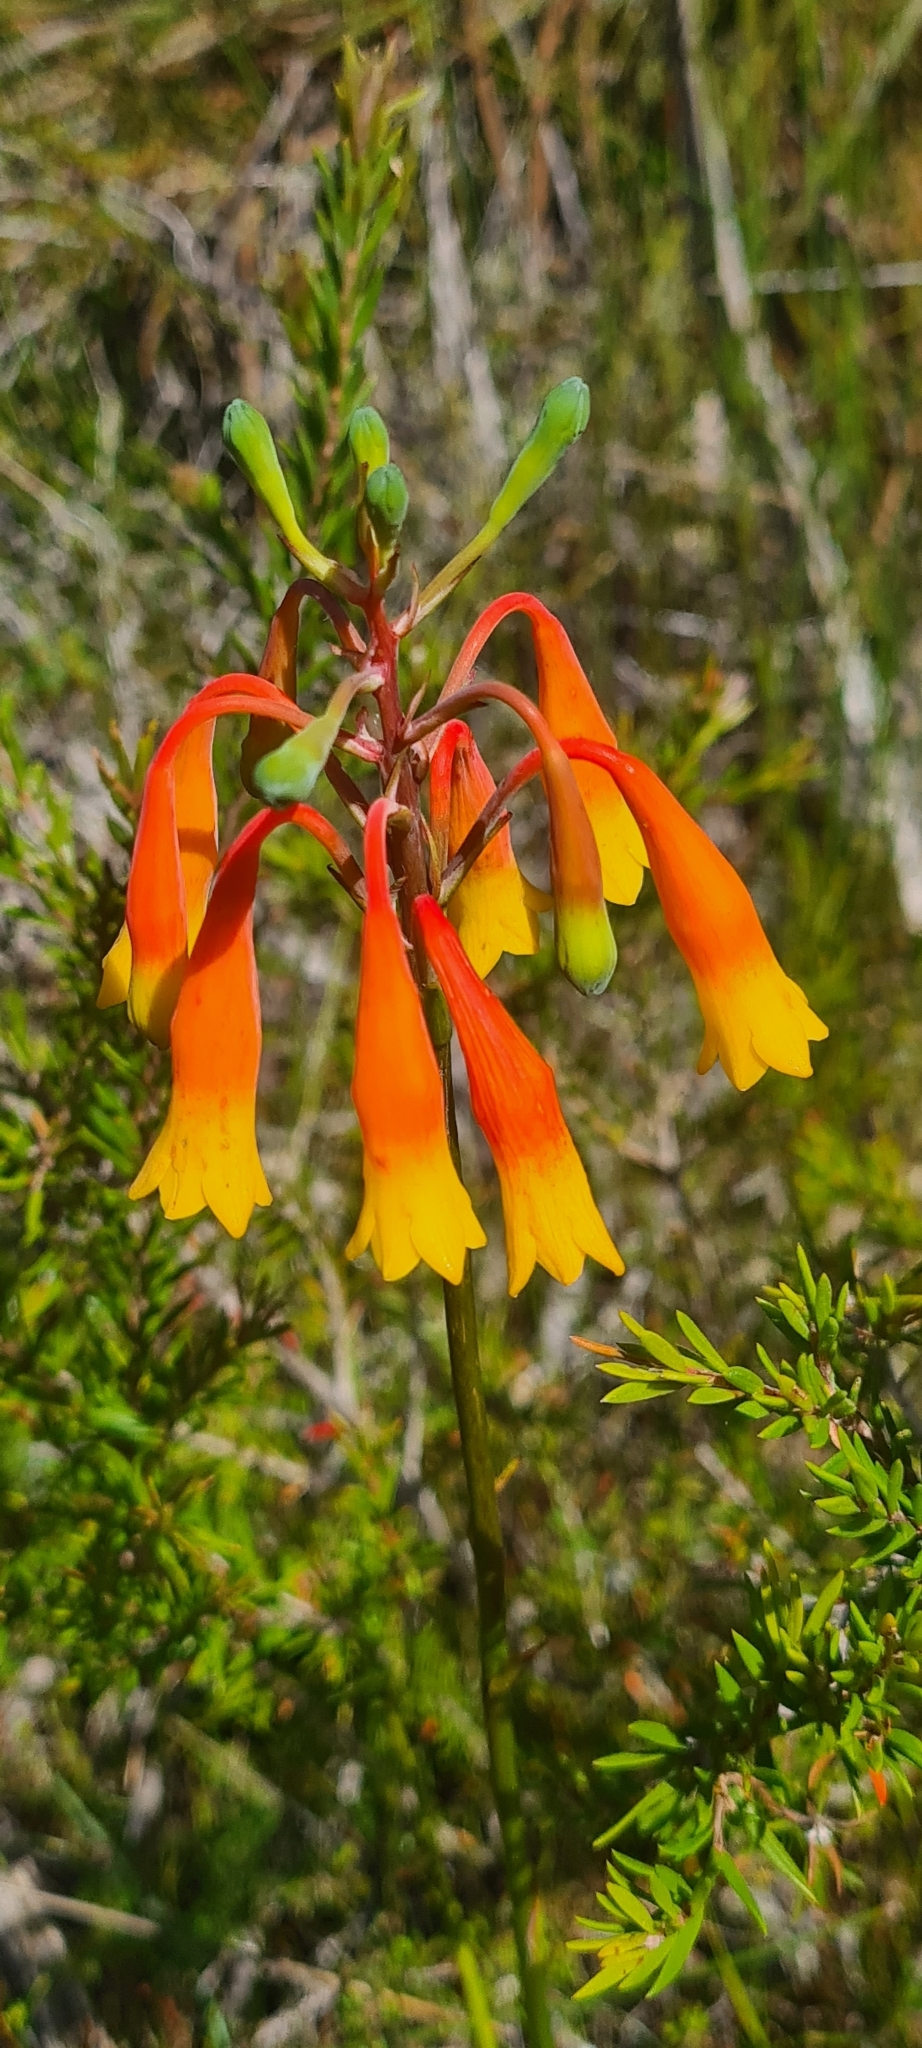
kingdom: Plantae
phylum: Tracheophyta
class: Liliopsida
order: Asparagales
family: Blandfordiaceae
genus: Blandfordia
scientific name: Blandfordia nobilis
